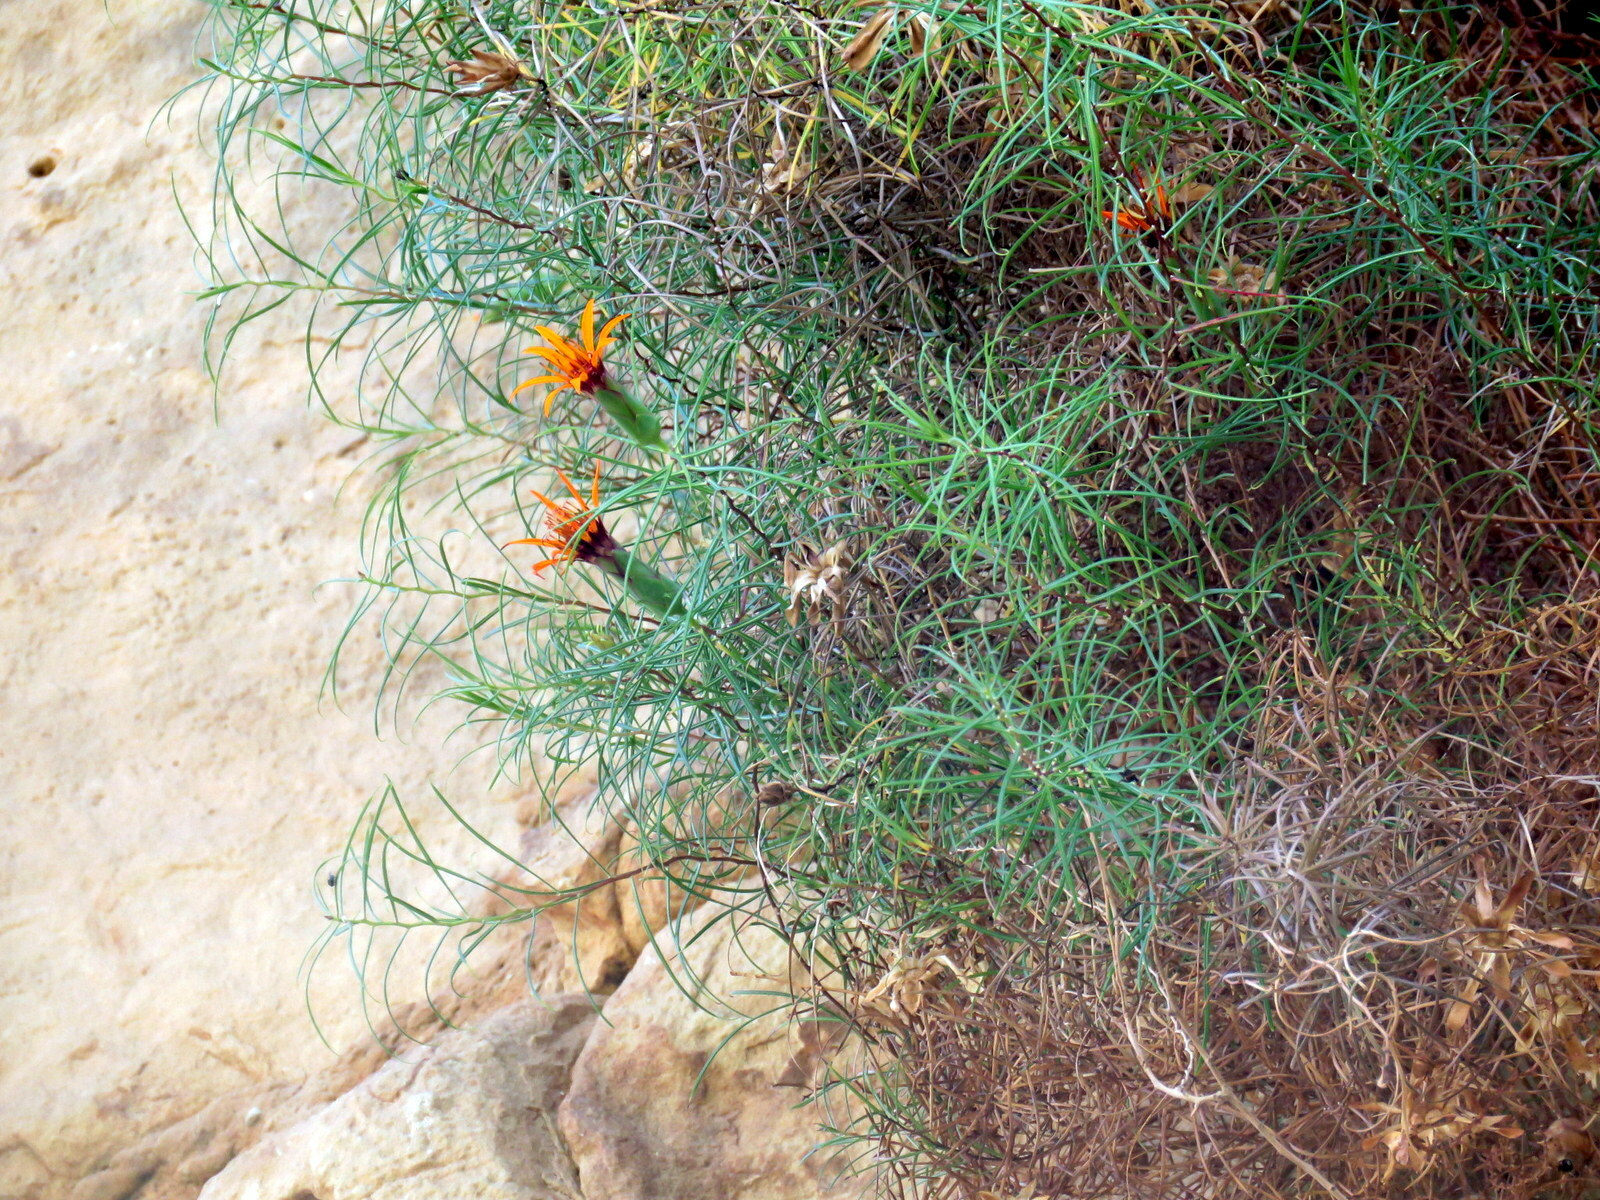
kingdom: Plantae
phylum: Tracheophyta
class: Magnoliopsida
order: Asterales
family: Asteraceae
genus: Mutisia
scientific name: Mutisia friesiana
